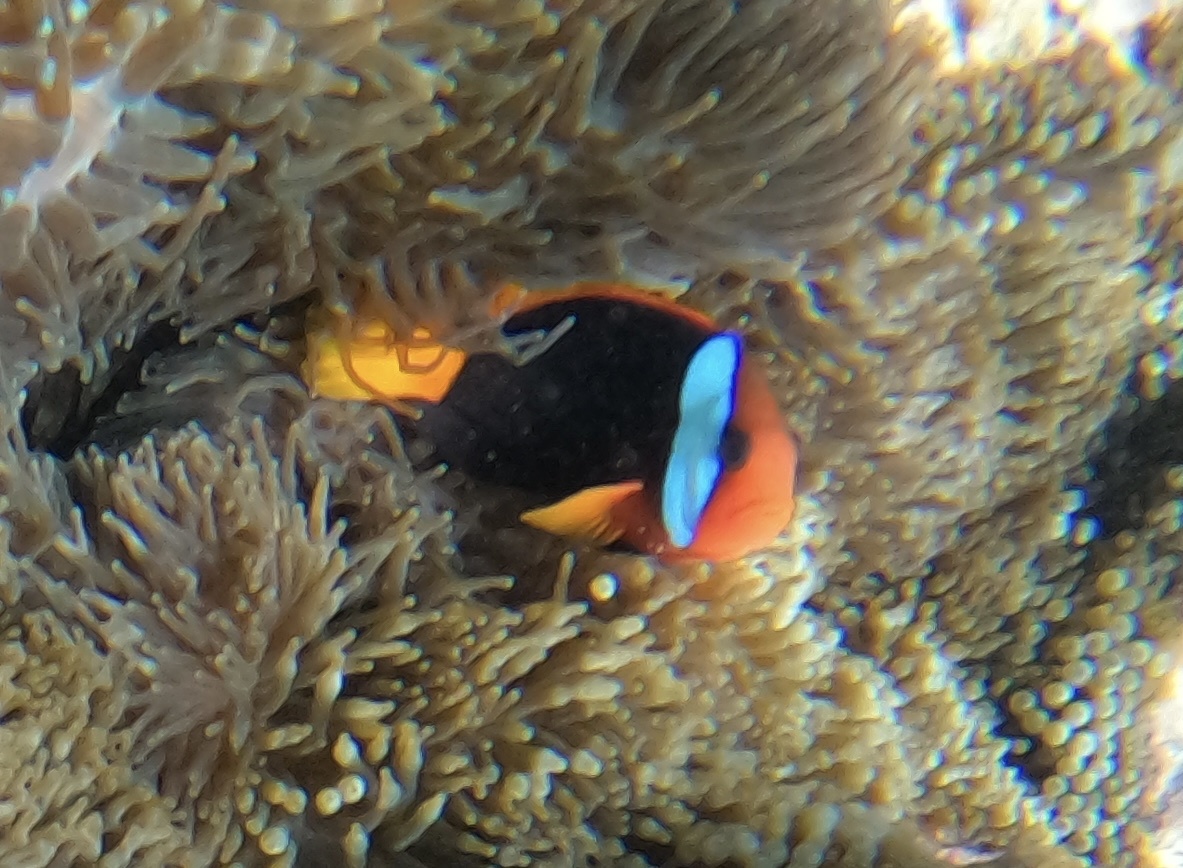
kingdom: Animalia
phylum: Chordata
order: Perciformes
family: Pomacentridae
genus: Amphiprion
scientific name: Amphiprion melanopus
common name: Black anemonefish
